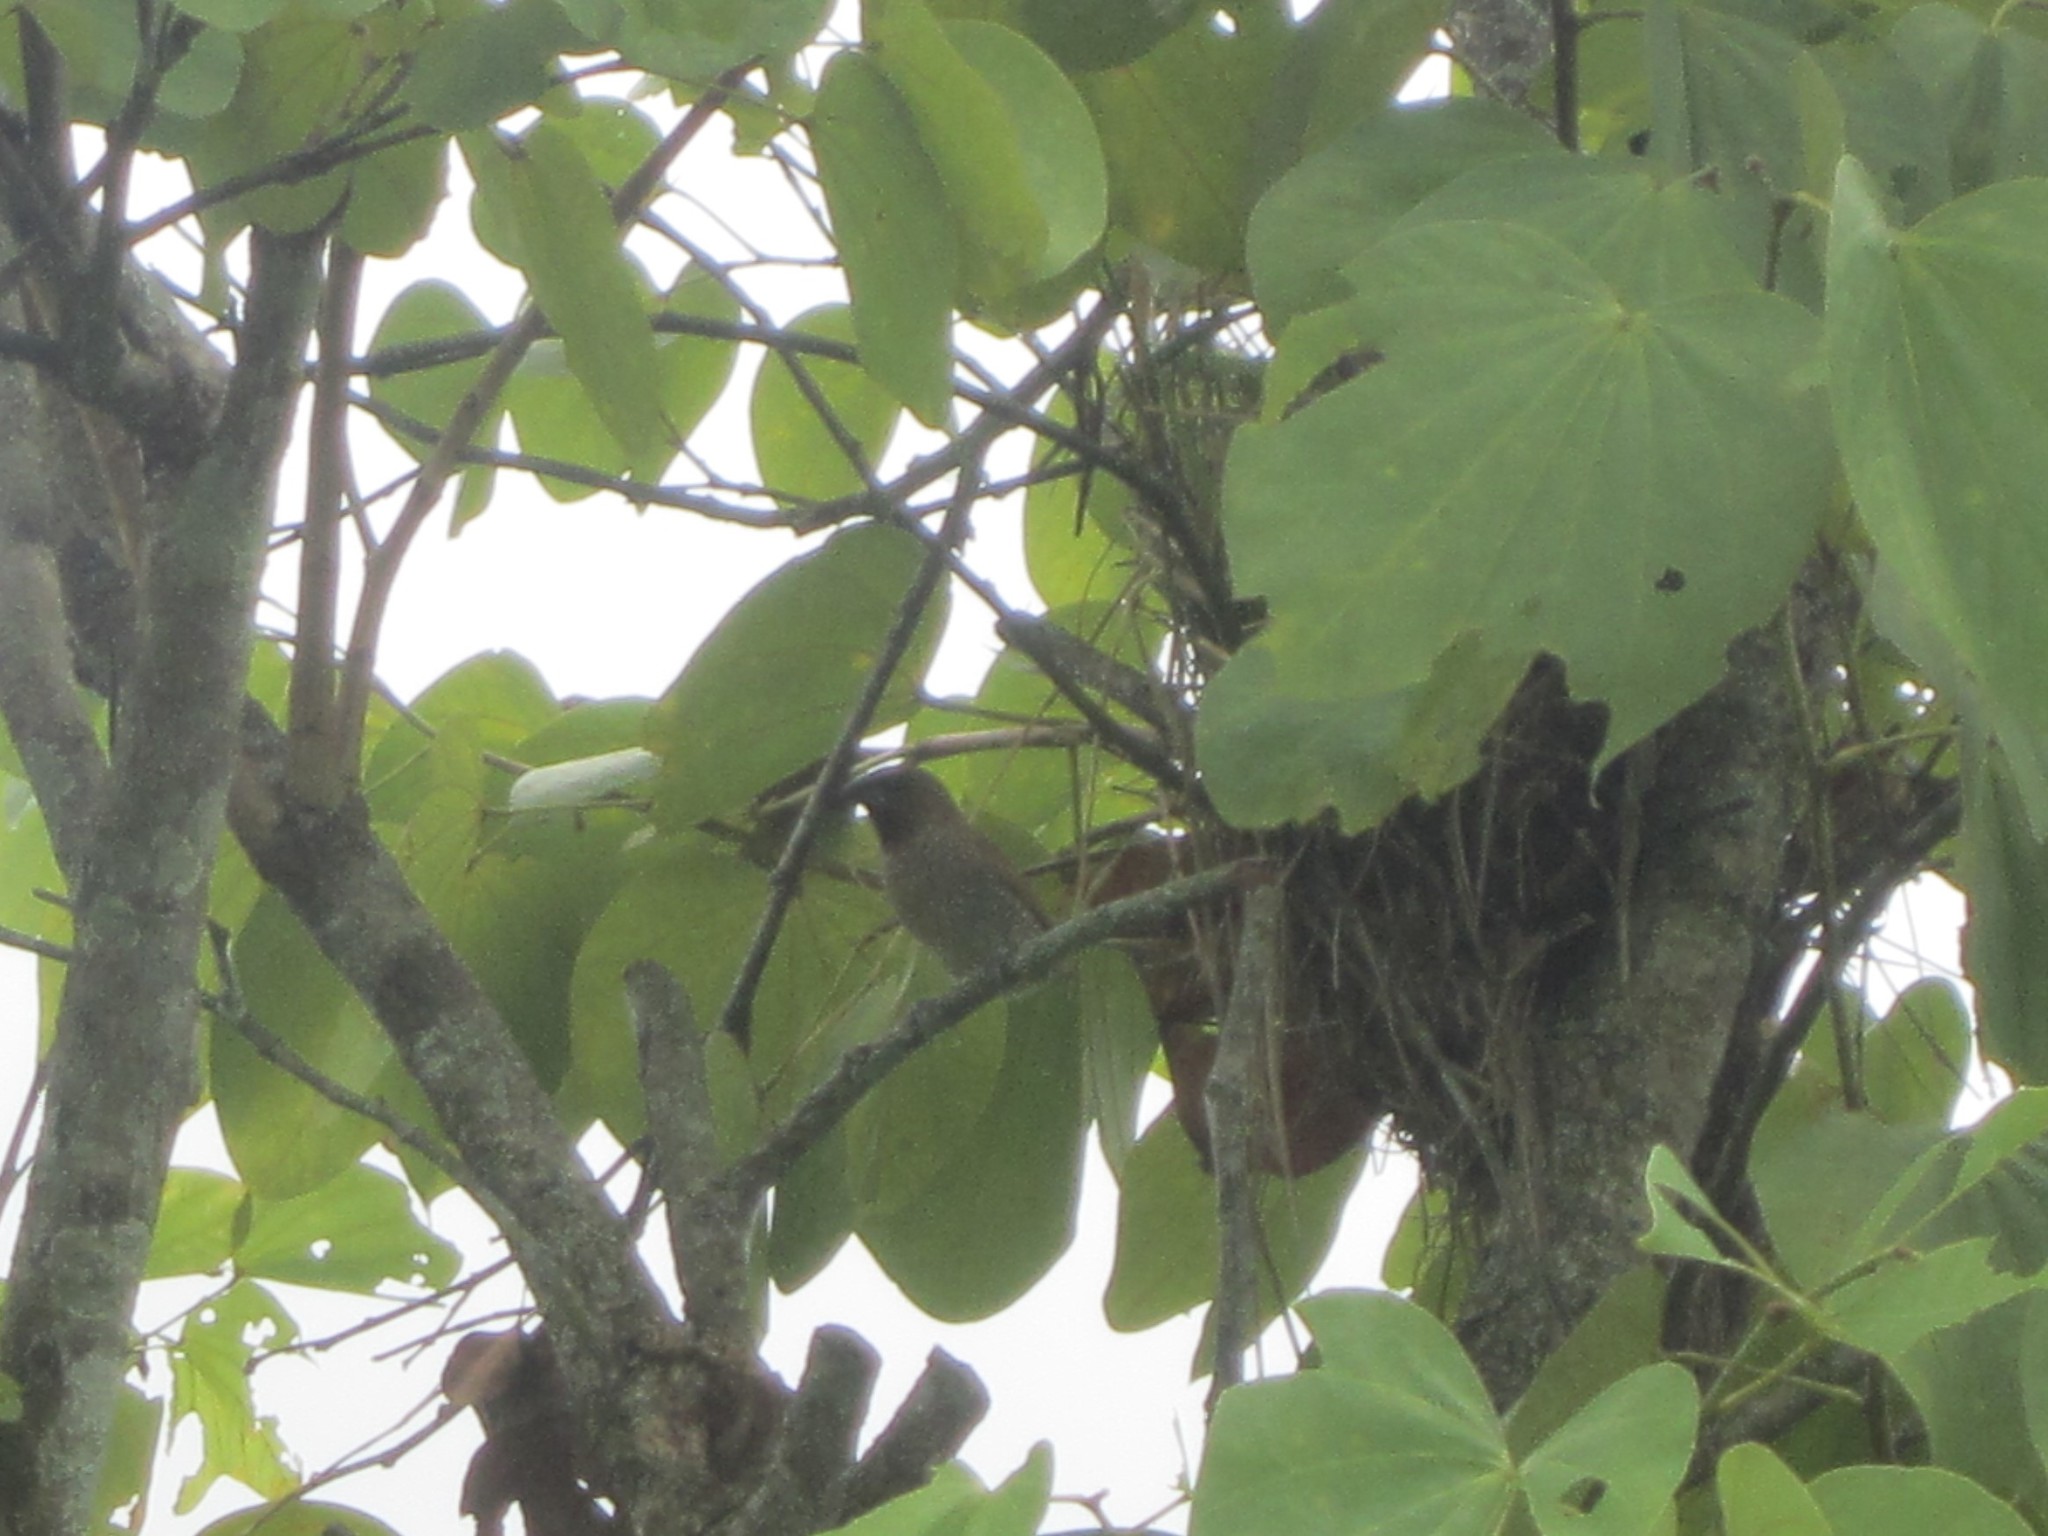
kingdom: Animalia
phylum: Chordata
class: Aves
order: Passeriformes
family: Estrildidae
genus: Lonchura
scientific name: Lonchura punctulata
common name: Scaly-breasted munia
